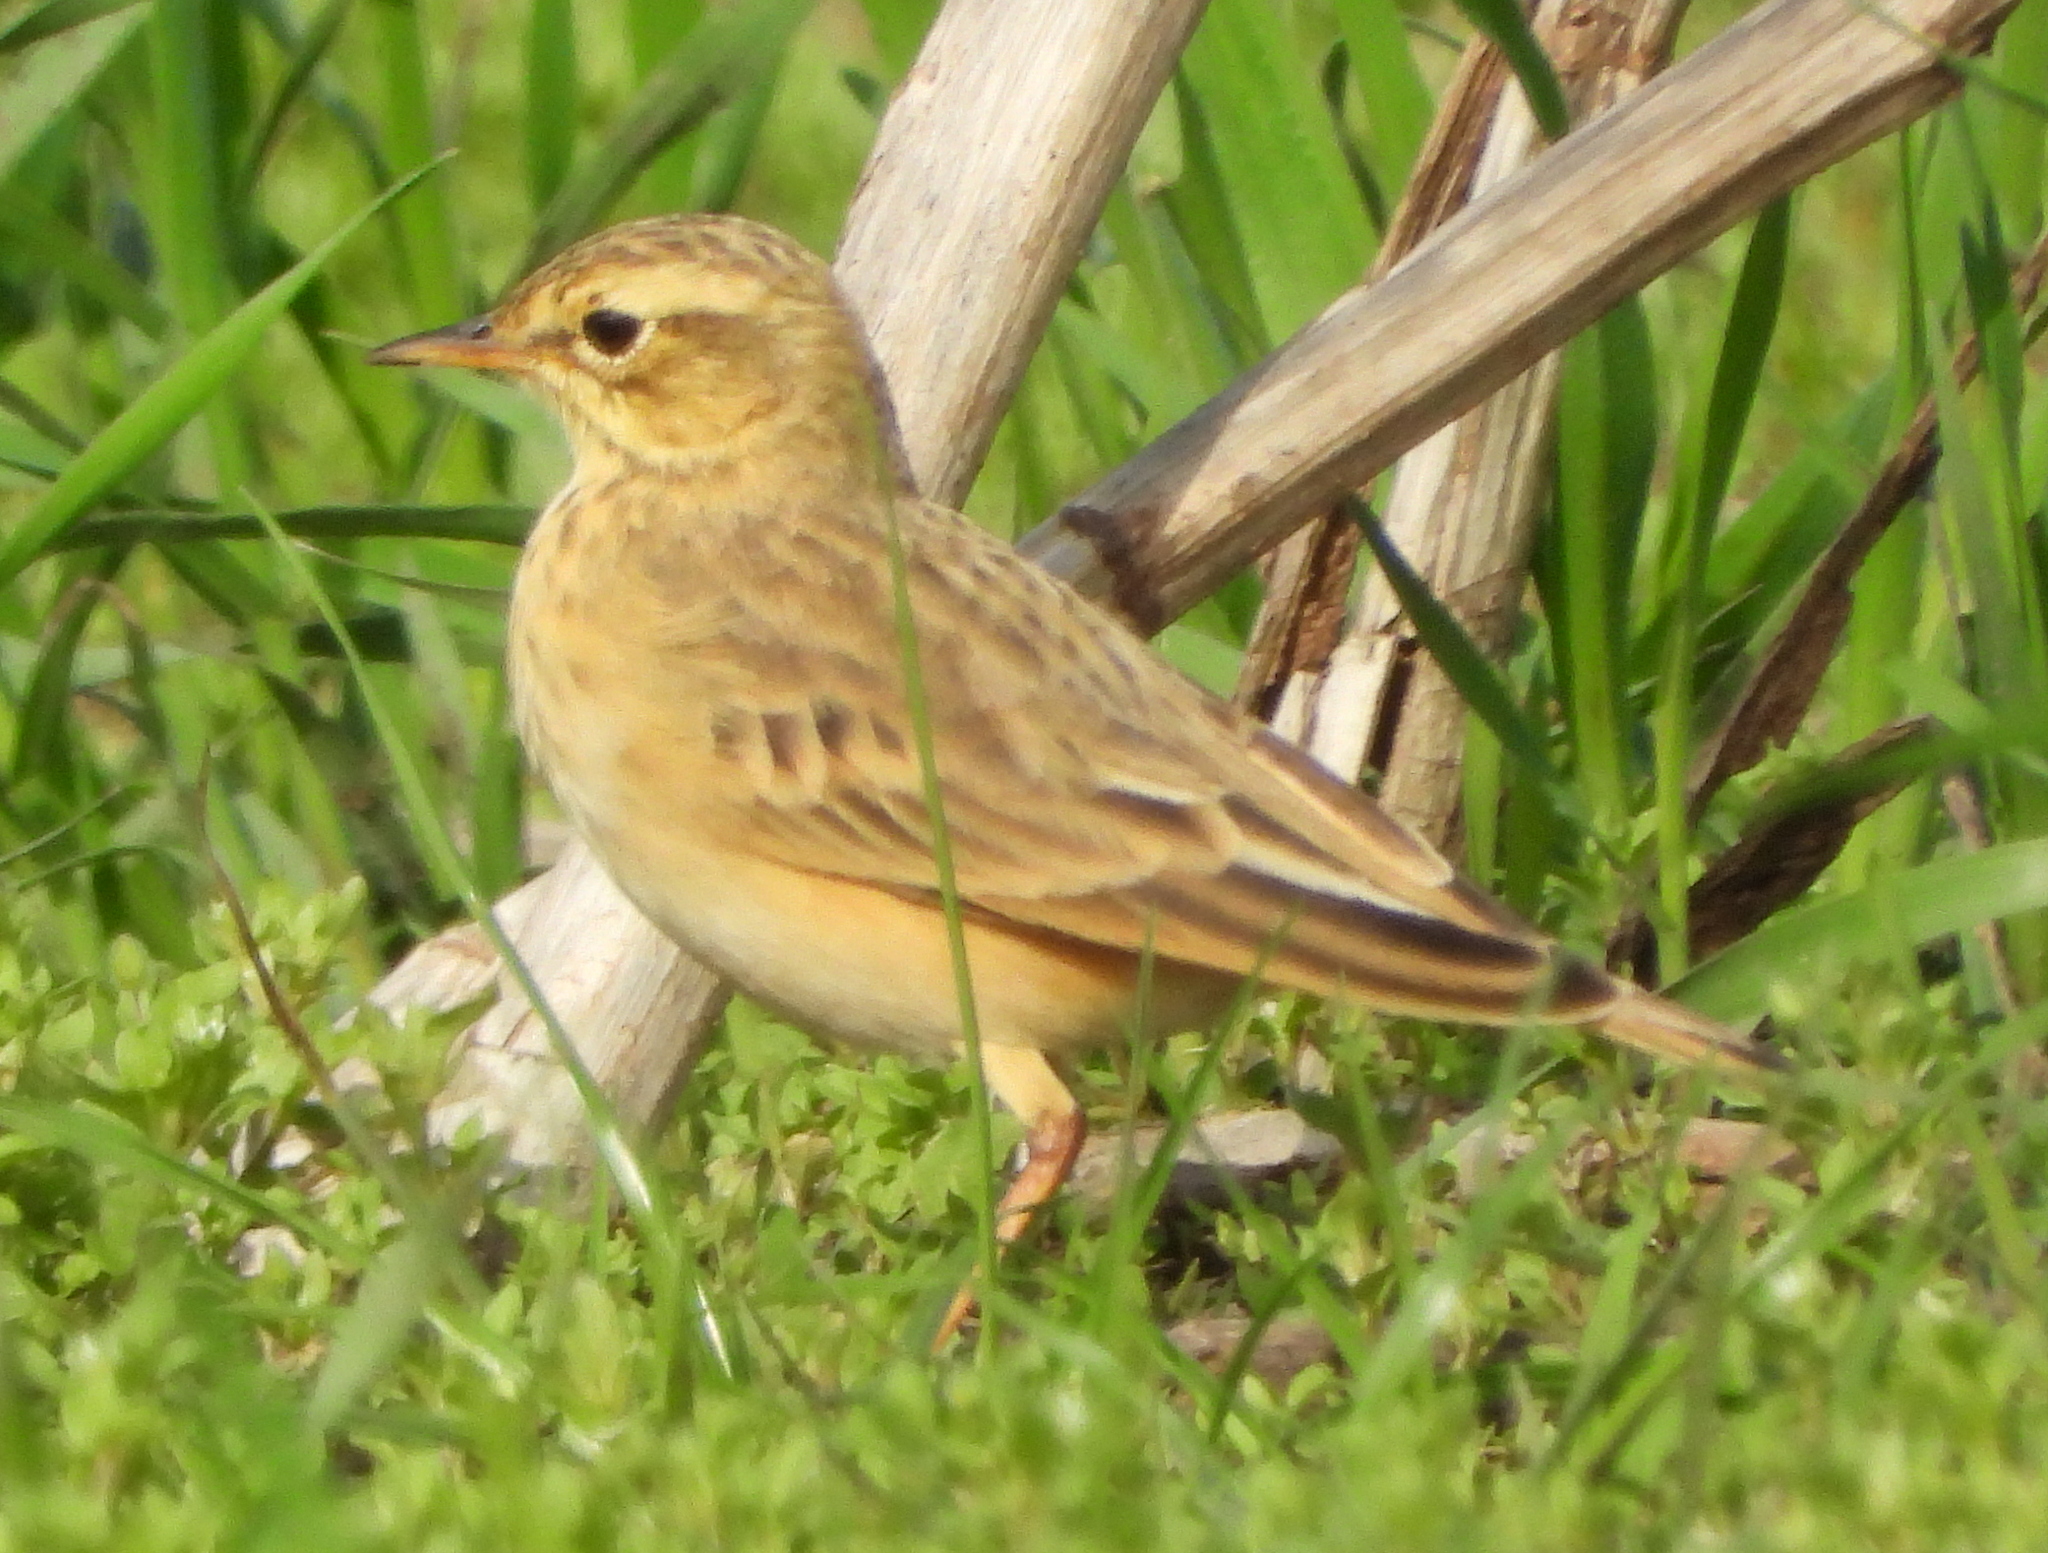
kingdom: Animalia
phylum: Chordata
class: Aves
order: Passeriformes
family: Motacillidae
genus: Anthus
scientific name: Anthus cinnamomeus
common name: African pipit
